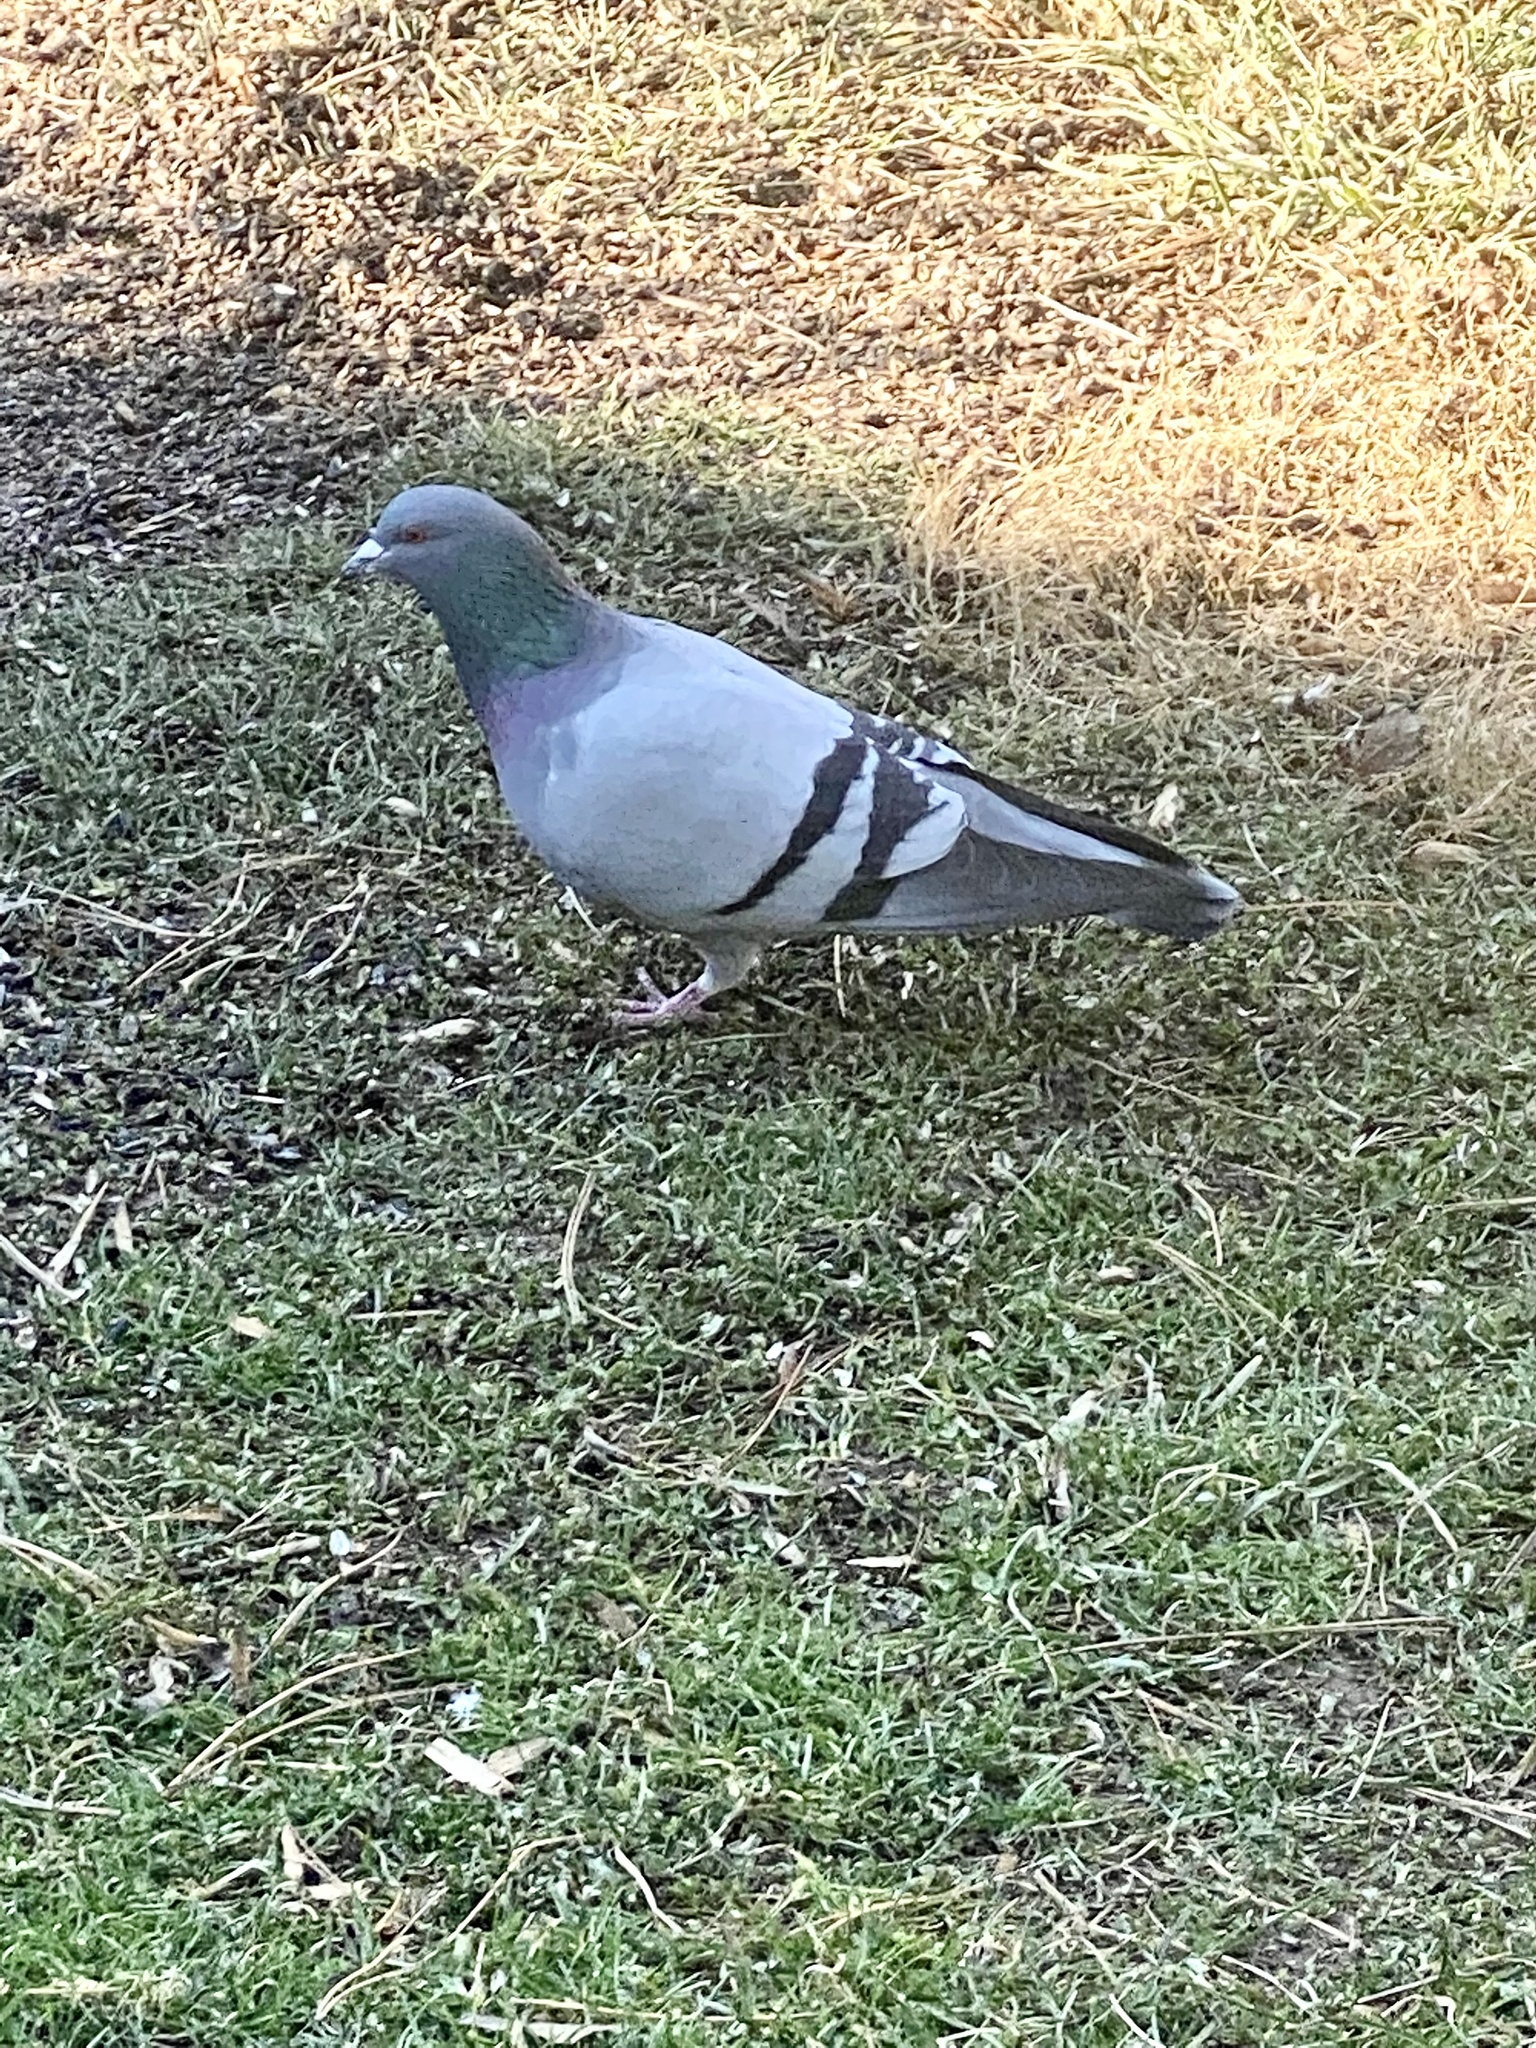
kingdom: Animalia
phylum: Chordata
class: Aves
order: Columbiformes
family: Columbidae
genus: Columba
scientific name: Columba livia
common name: Rock pigeon
